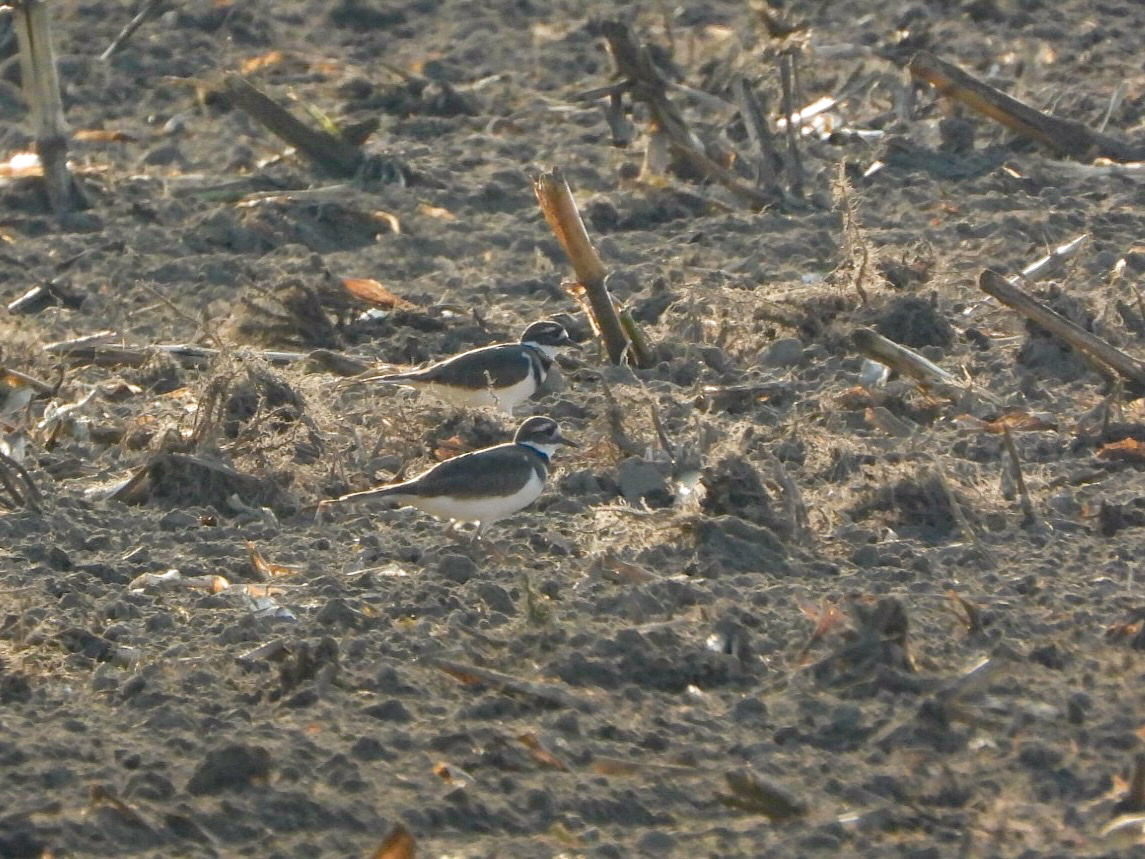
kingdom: Animalia
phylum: Chordata
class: Aves
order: Charadriiformes
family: Charadriidae
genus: Charadrius
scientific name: Charadrius vociferus
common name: Killdeer
